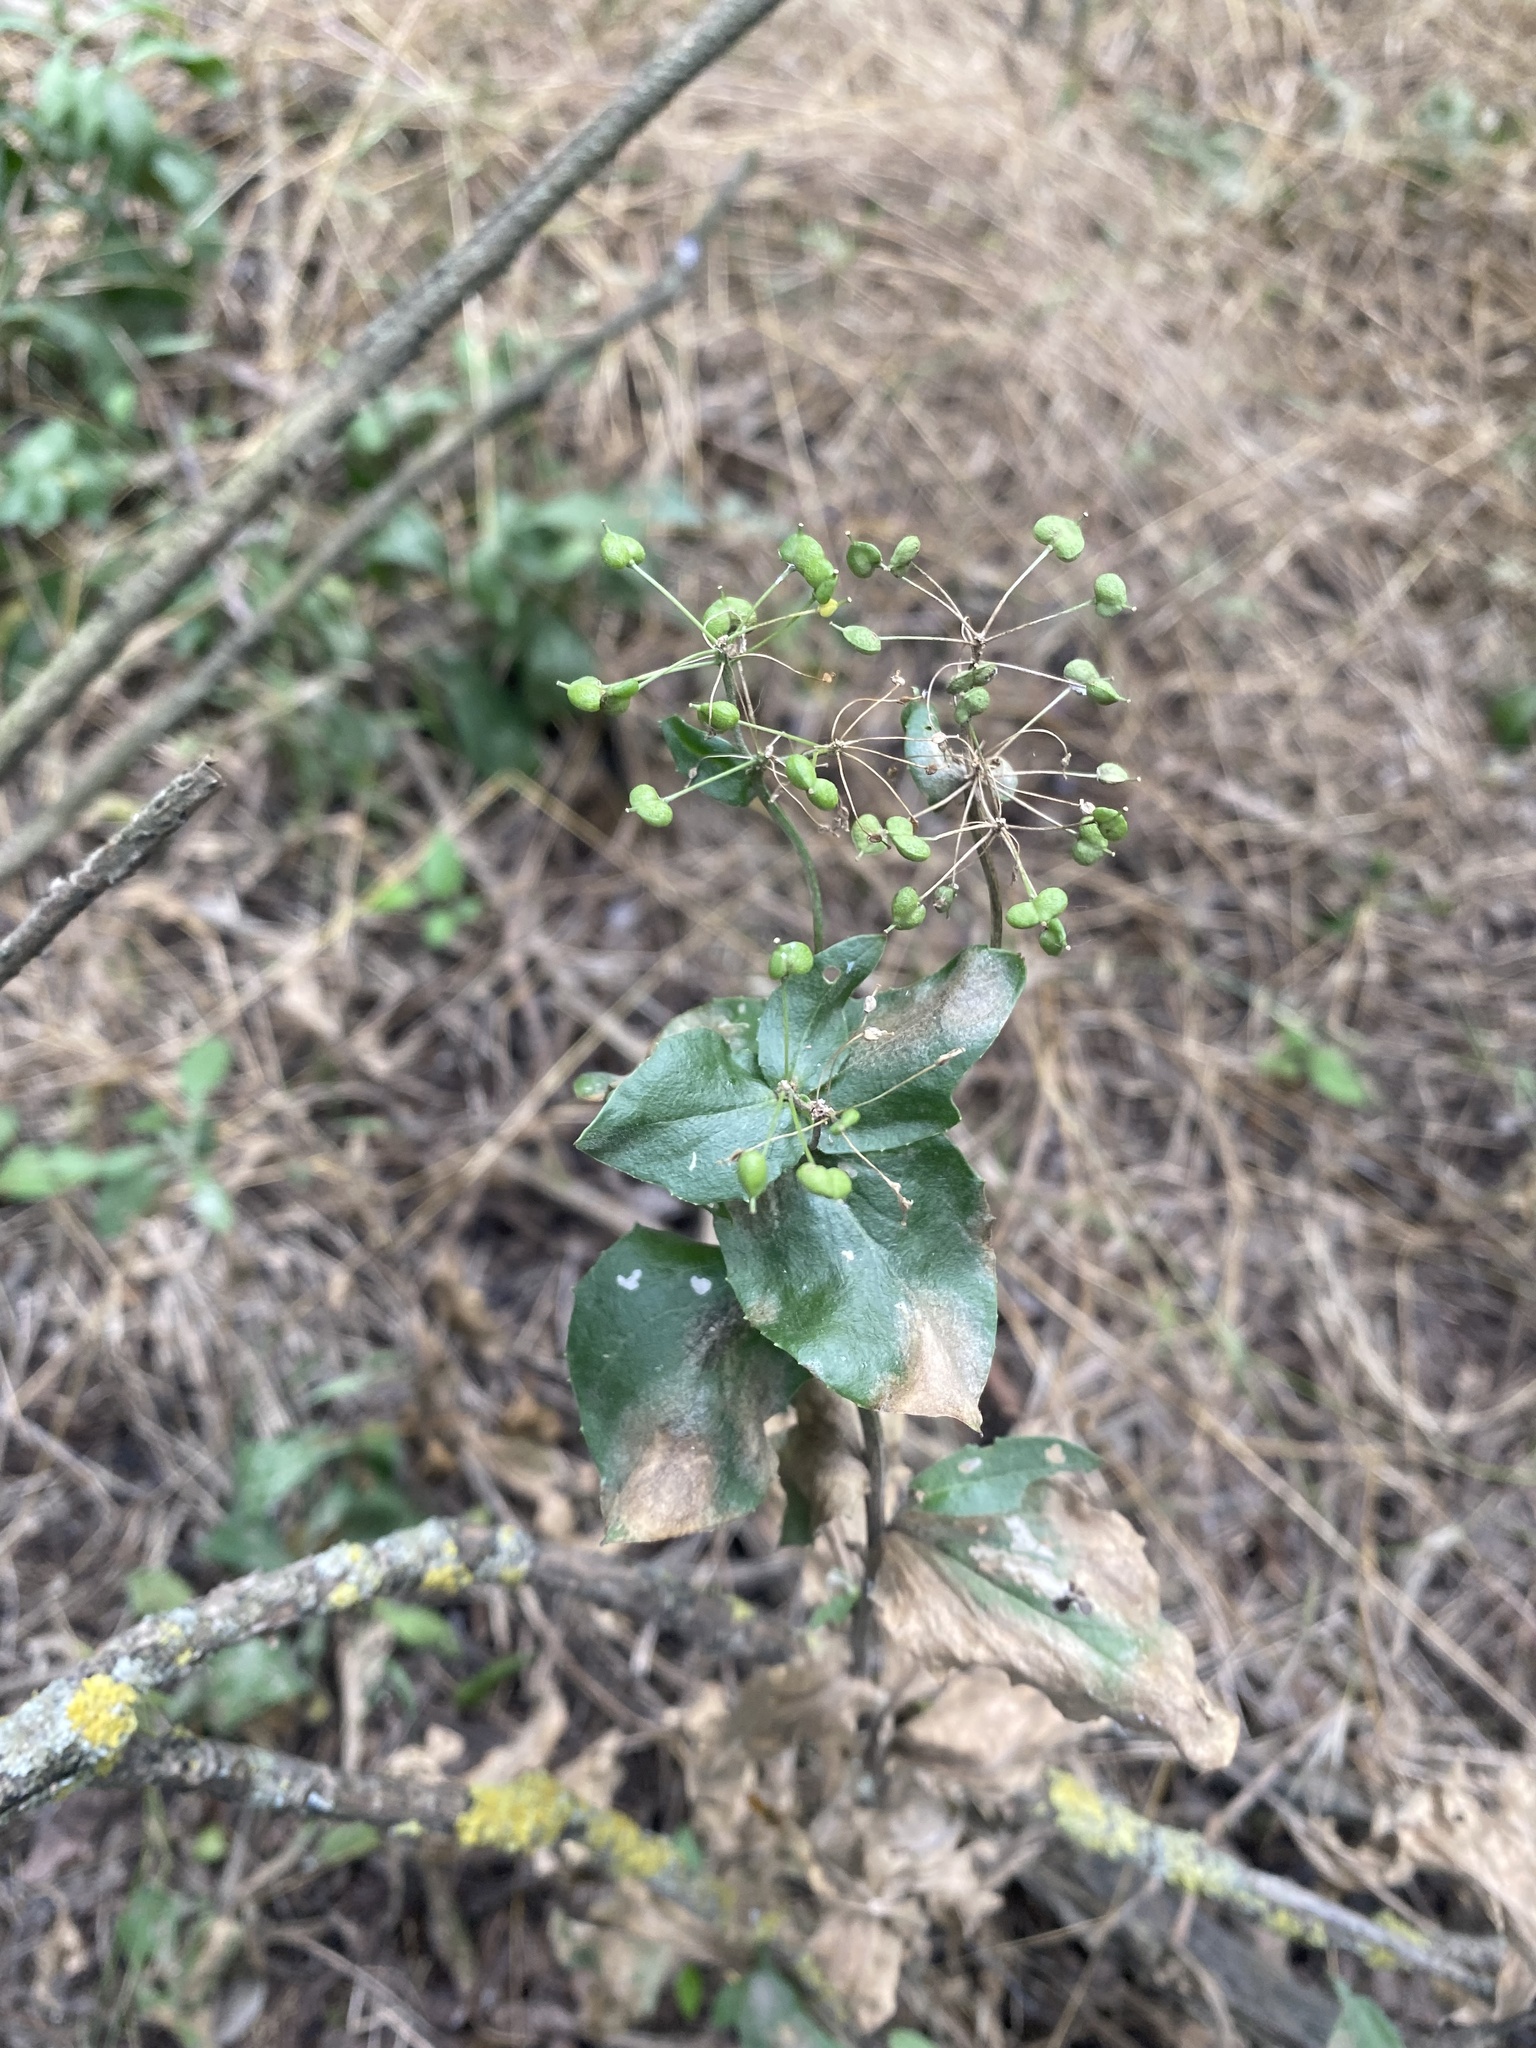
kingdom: Plantae
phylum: Tracheophyta
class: Magnoliopsida
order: Brassicales
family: Brassicaceae
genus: Lepidium
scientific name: Lepidium draba
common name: Hoary cress
